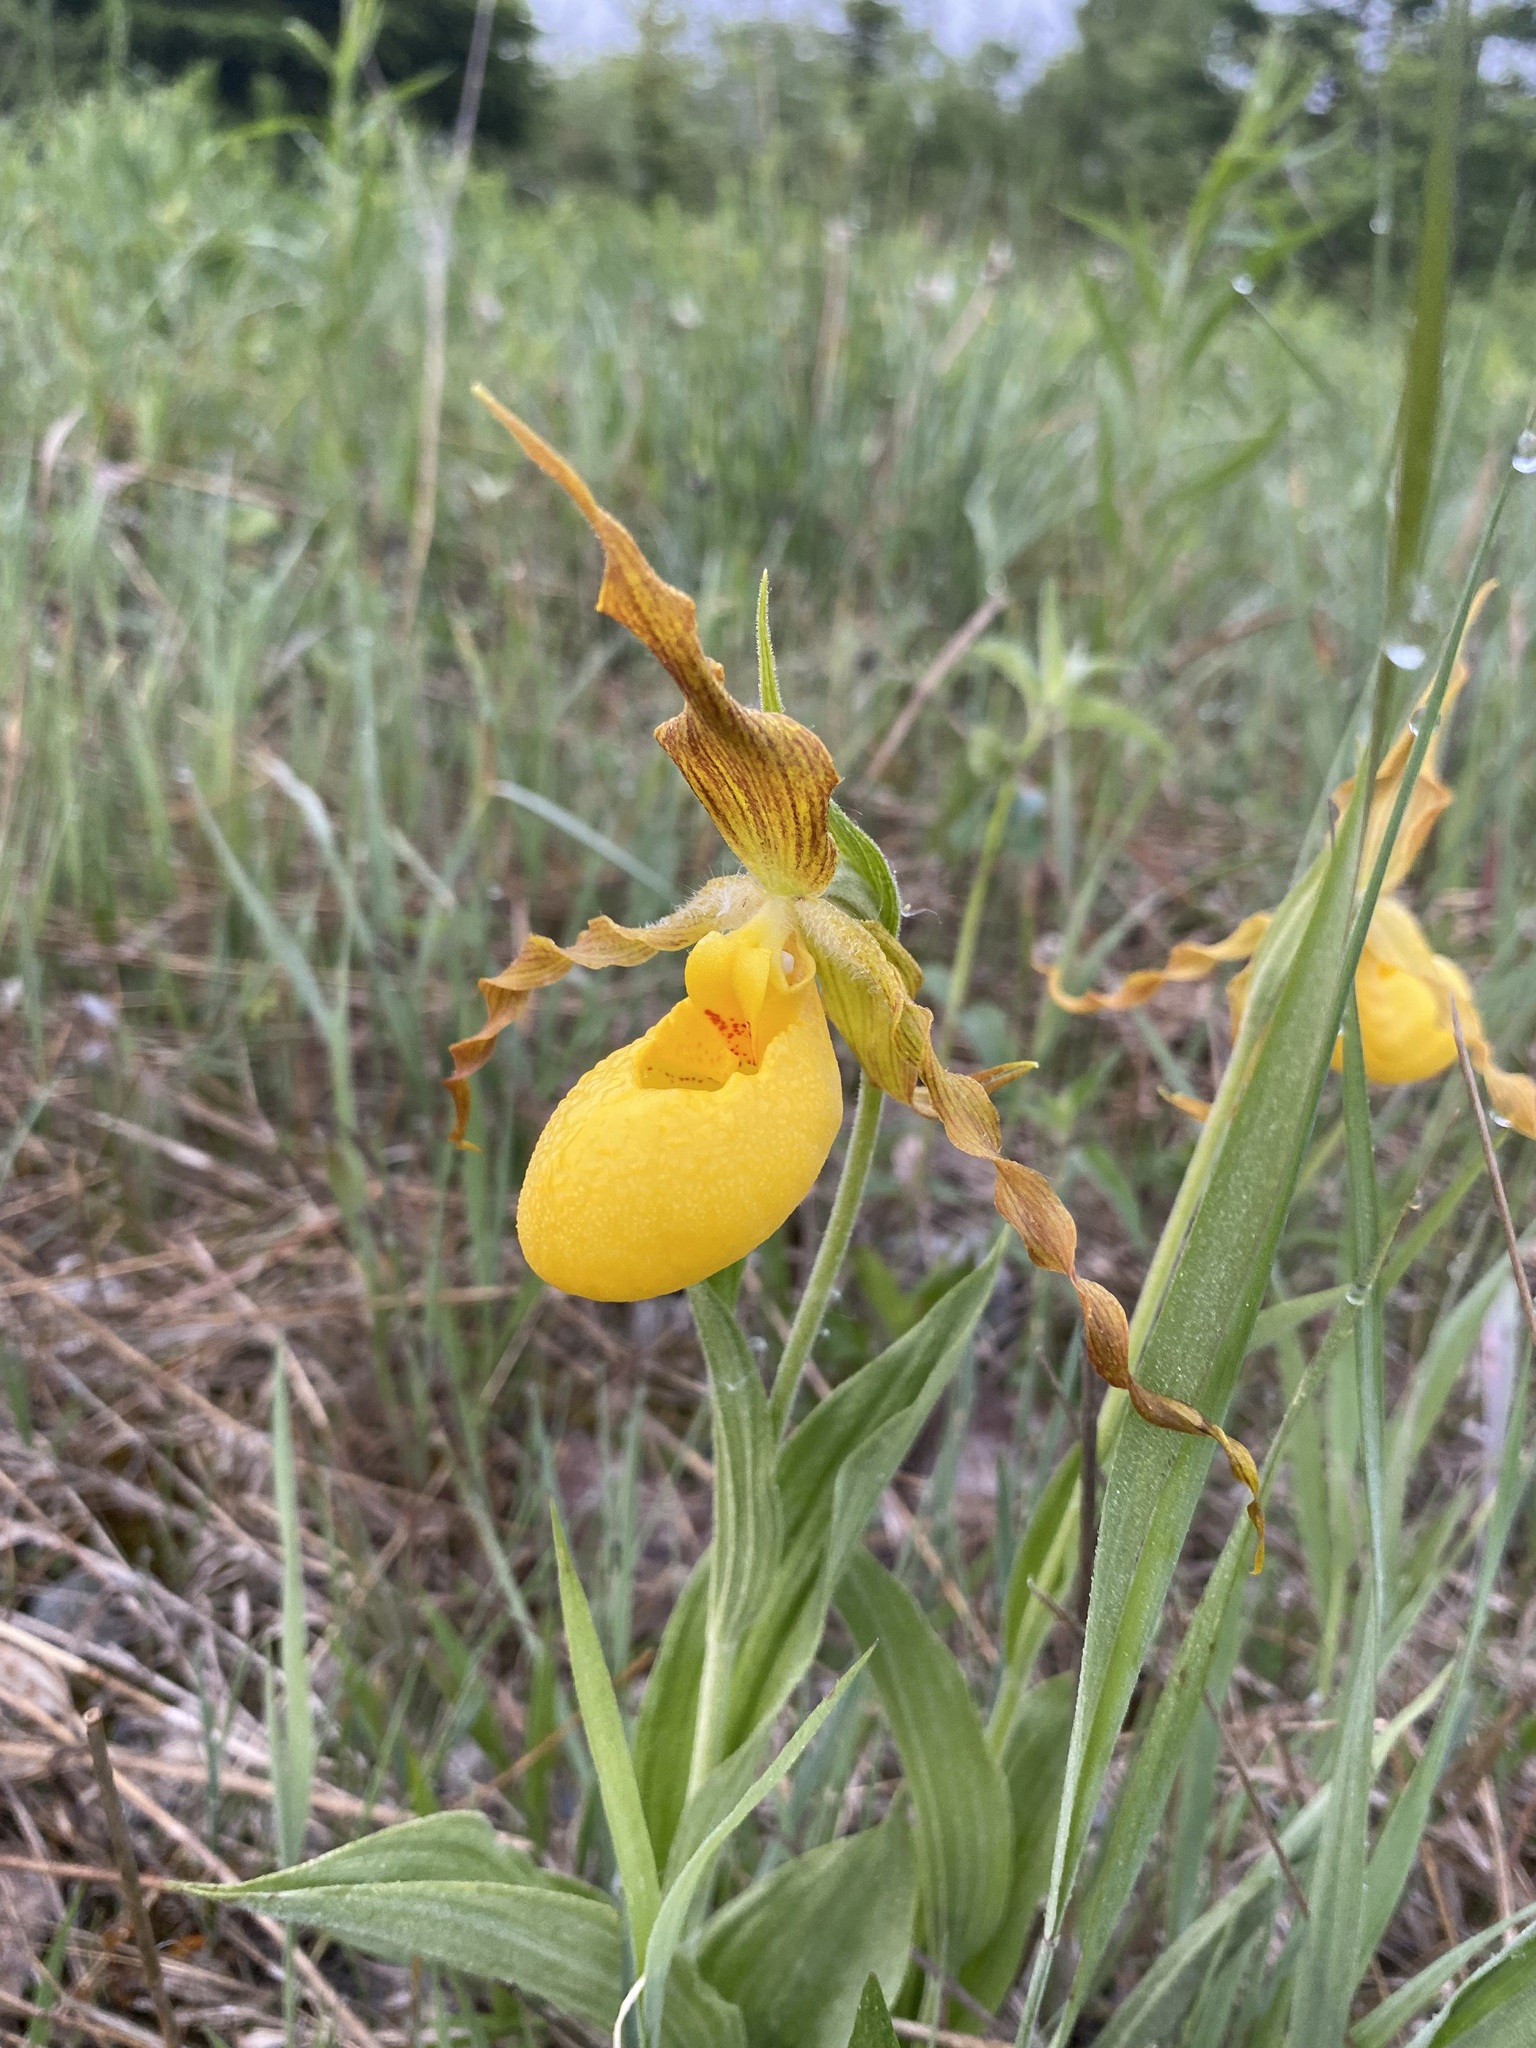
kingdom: Plantae
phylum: Tracheophyta
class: Liliopsida
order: Asparagales
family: Orchidaceae
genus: Cypripedium
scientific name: Cypripedium parviflorum
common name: American yellow lady's-slipper
